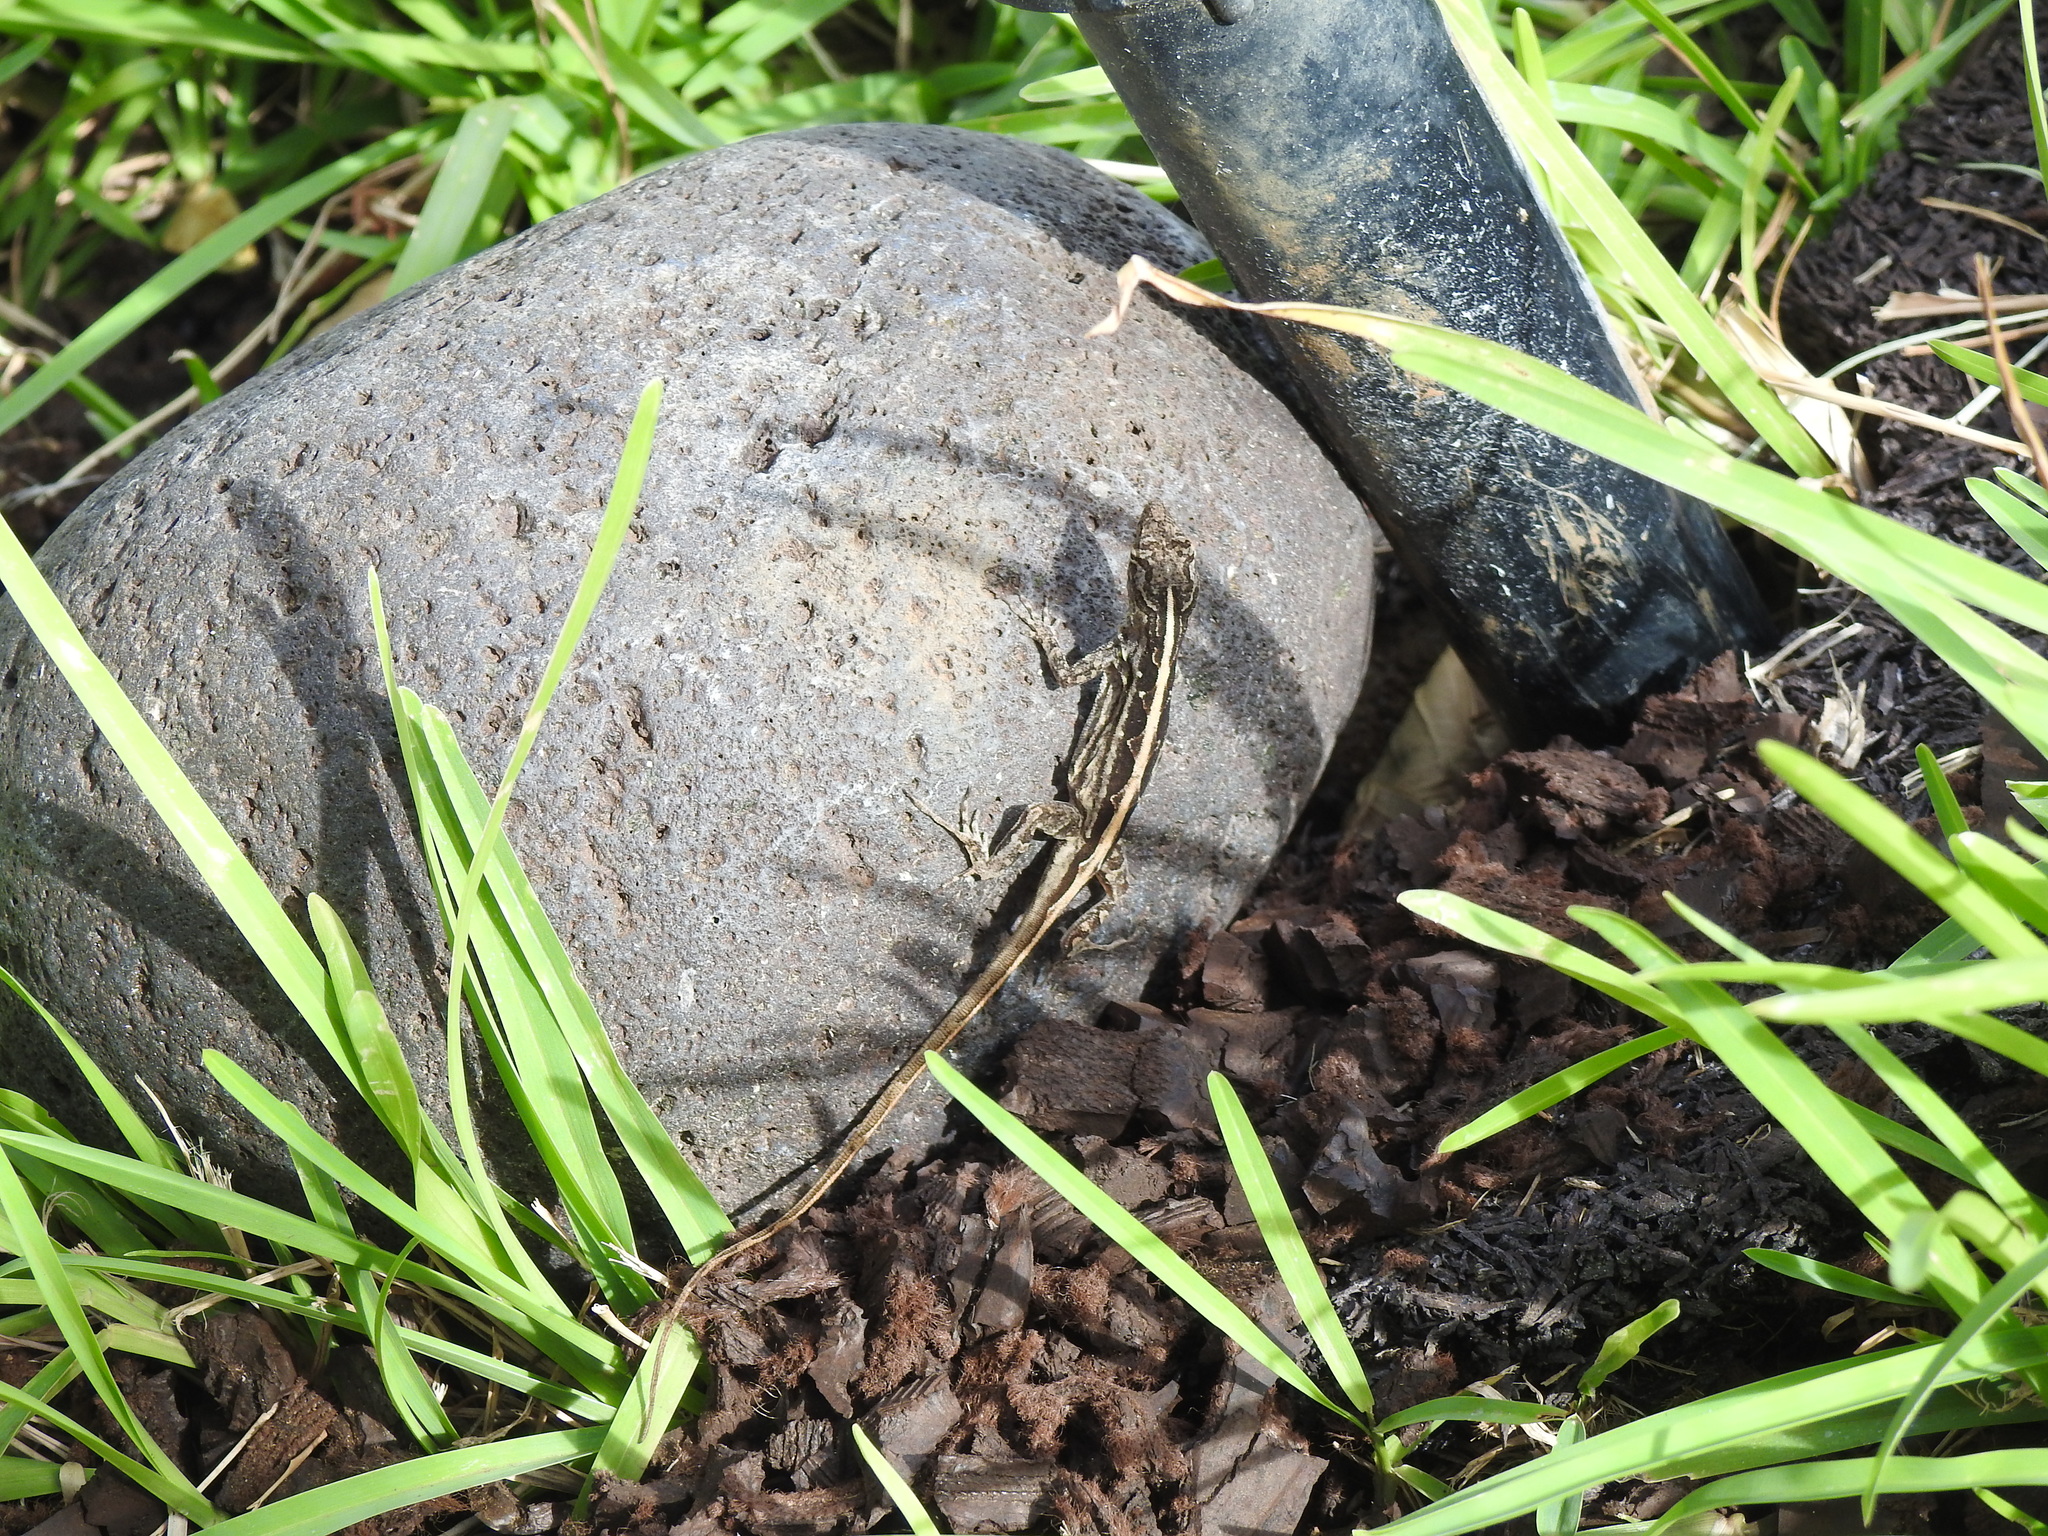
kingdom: Animalia
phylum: Chordata
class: Squamata
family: Dactyloidae
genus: Anolis
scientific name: Anolis sagrei
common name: Brown anole
